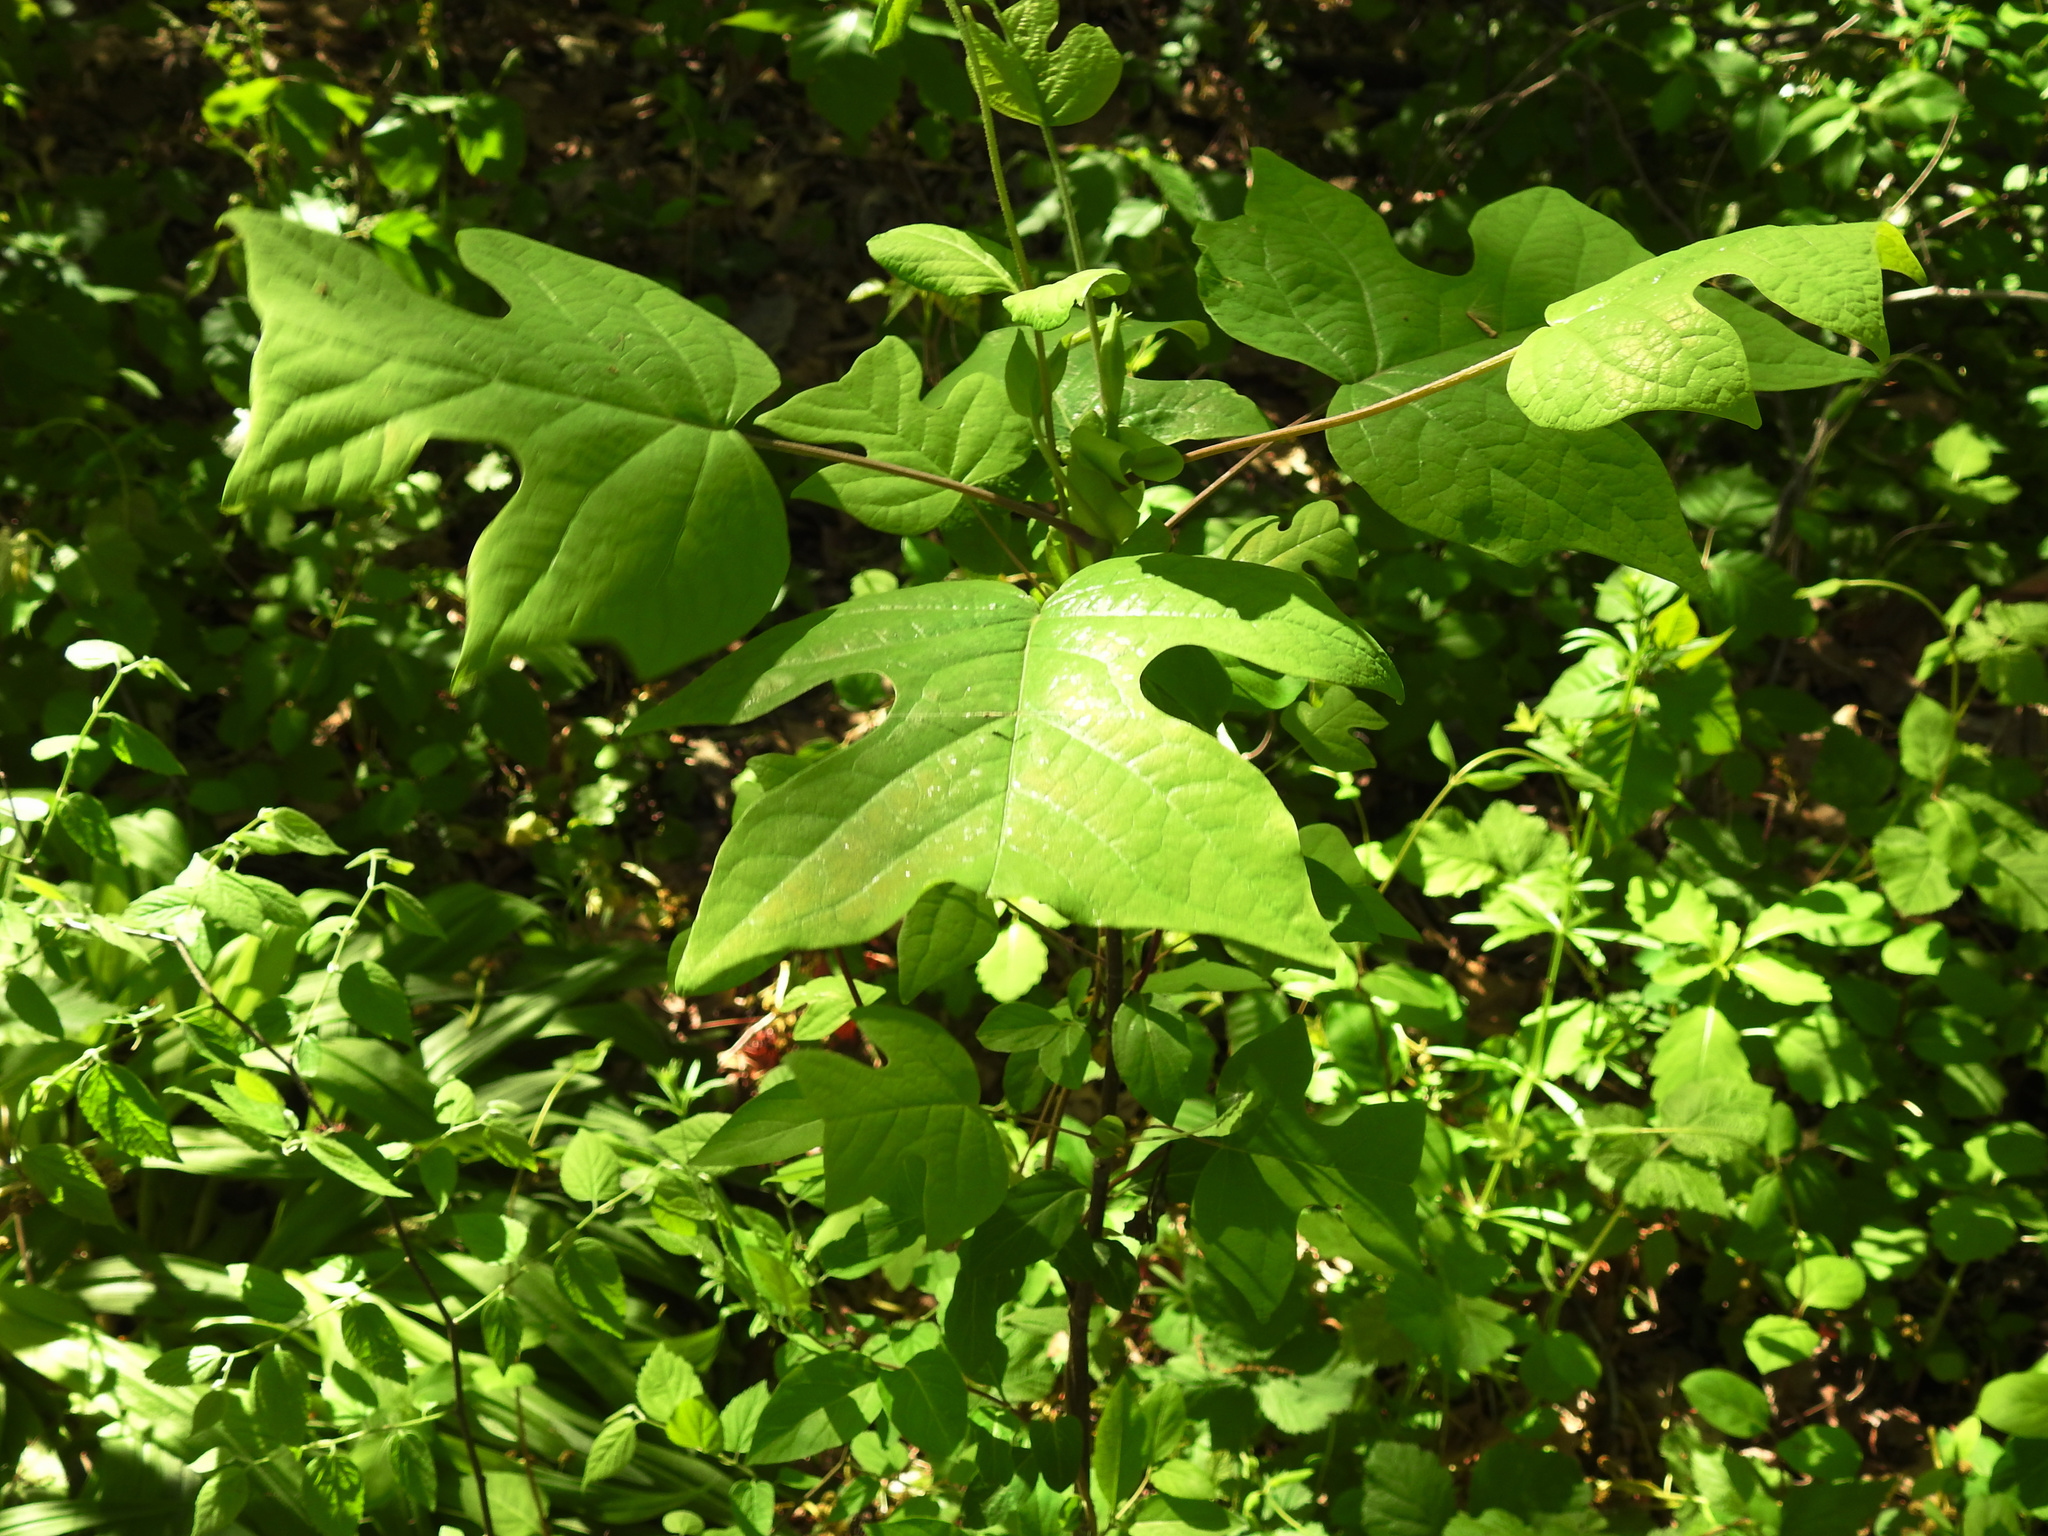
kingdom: Plantae
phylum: Tracheophyta
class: Magnoliopsida
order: Magnoliales
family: Magnoliaceae
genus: Liriodendron
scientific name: Liriodendron tulipifera
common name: Tulip tree
